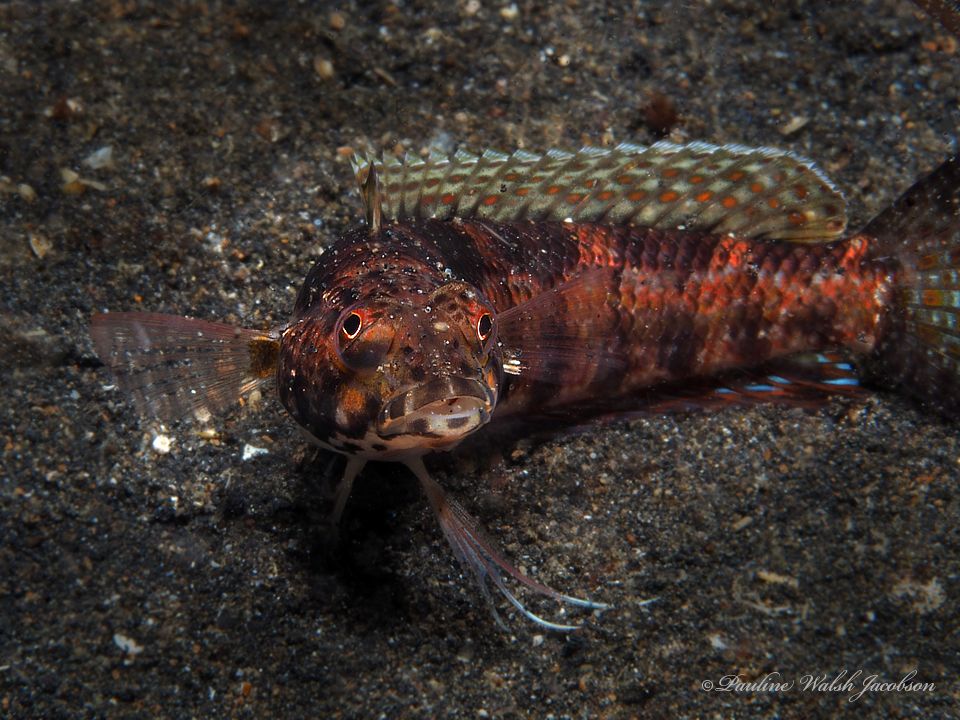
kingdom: Animalia
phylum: Chordata
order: Perciformes
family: Pinguipedidae
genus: Parapercis
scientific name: Parapercis snyderi
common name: U-mark sandperch
